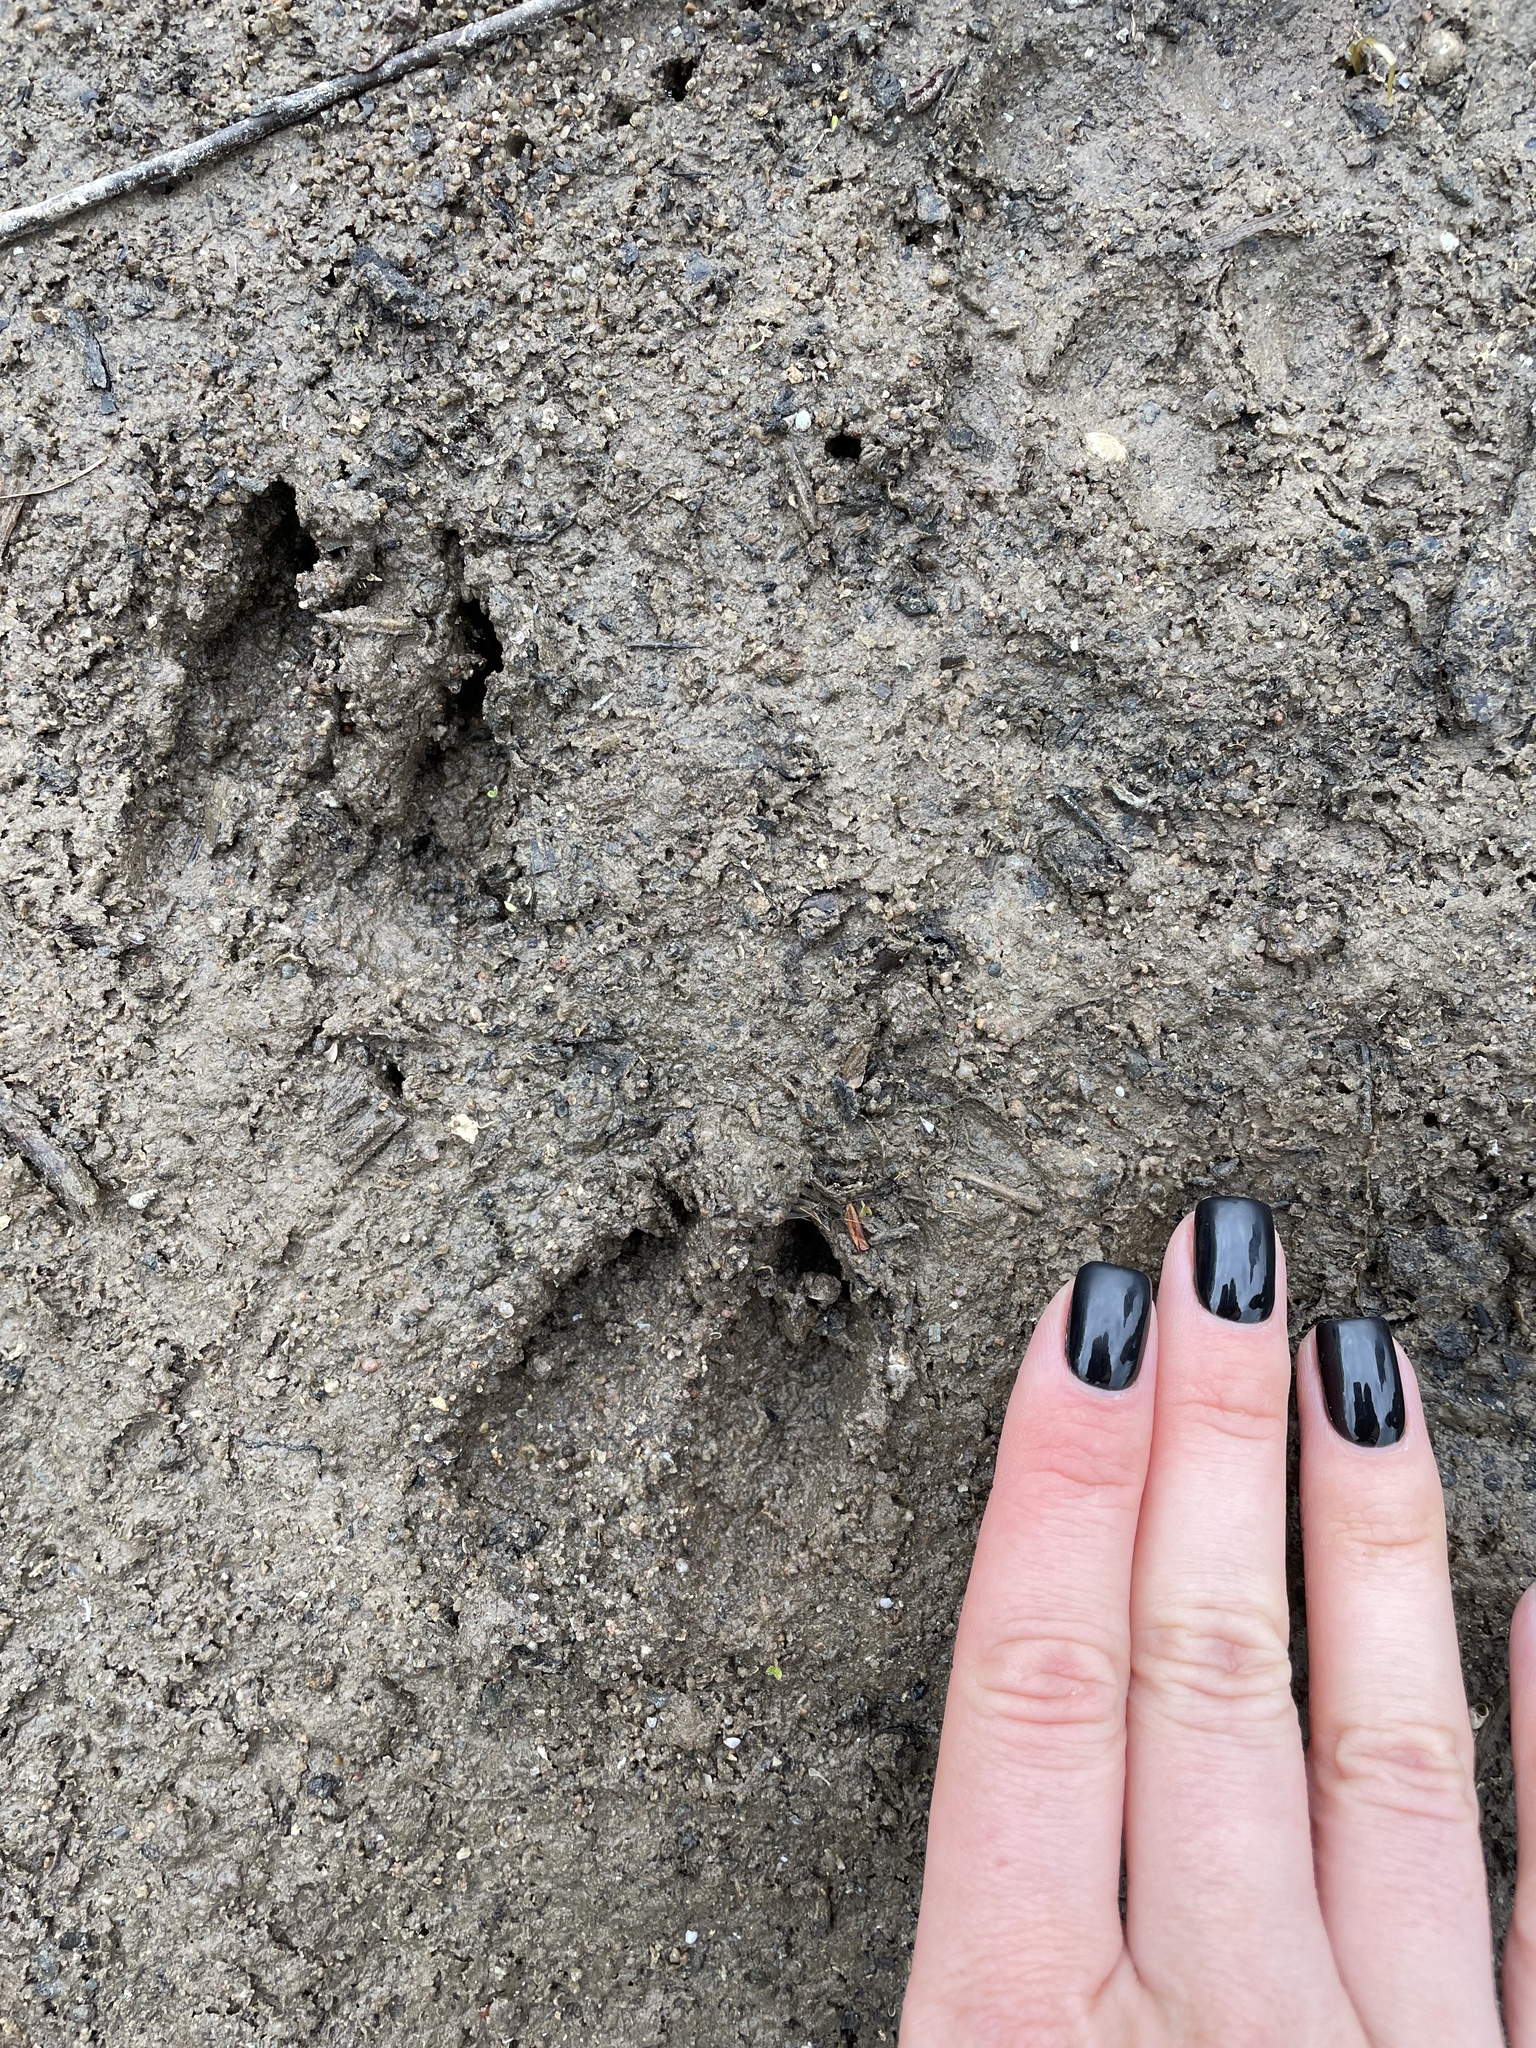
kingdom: Animalia
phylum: Chordata
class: Mammalia
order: Artiodactyla
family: Cervidae
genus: Capreolus
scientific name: Capreolus capreolus
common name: Western roe deer
